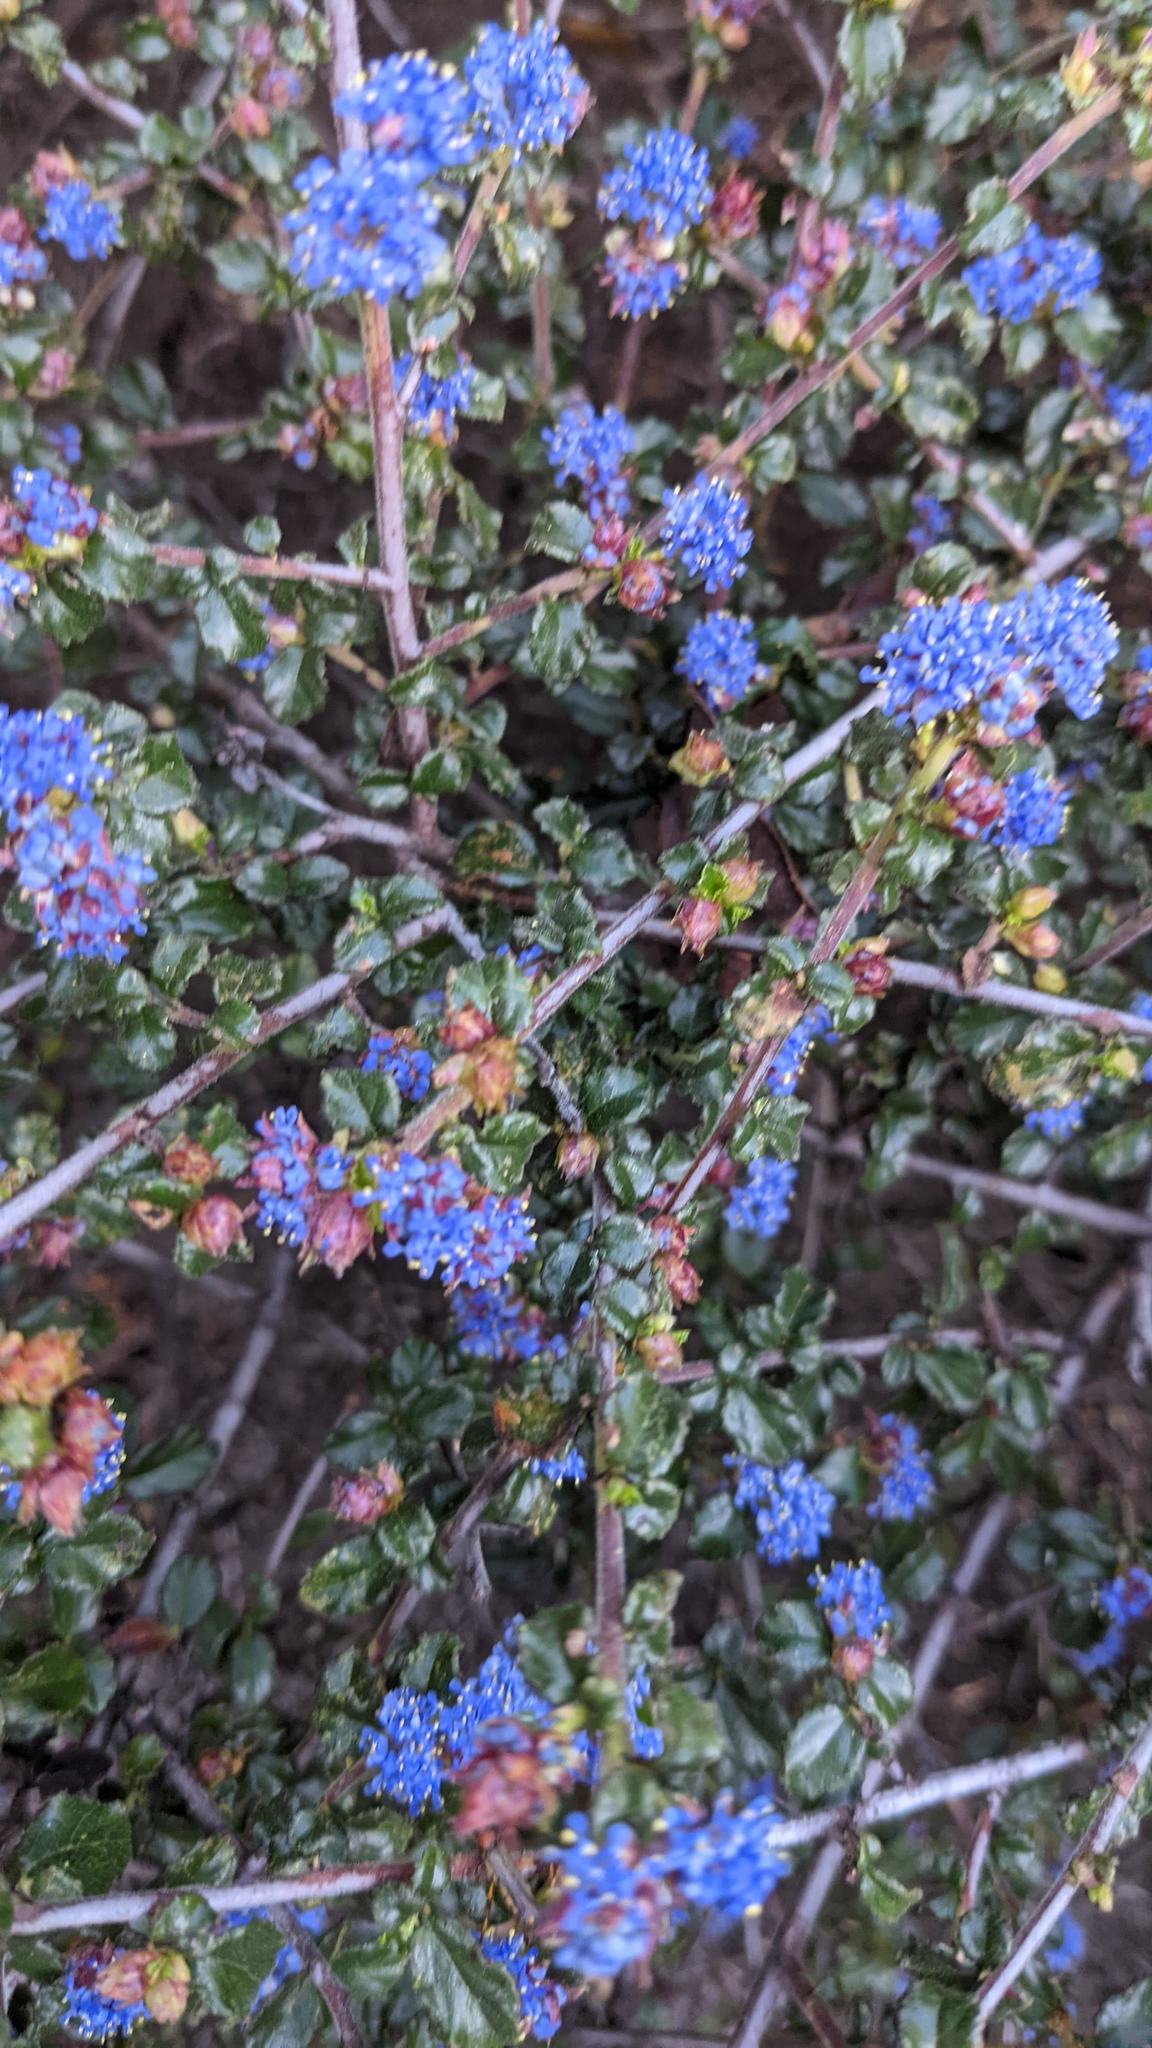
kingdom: Plantae
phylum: Tracheophyta
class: Magnoliopsida
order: Rosales
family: Rhamnaceae
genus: Ceanothus
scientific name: Ceanothus foliosus
